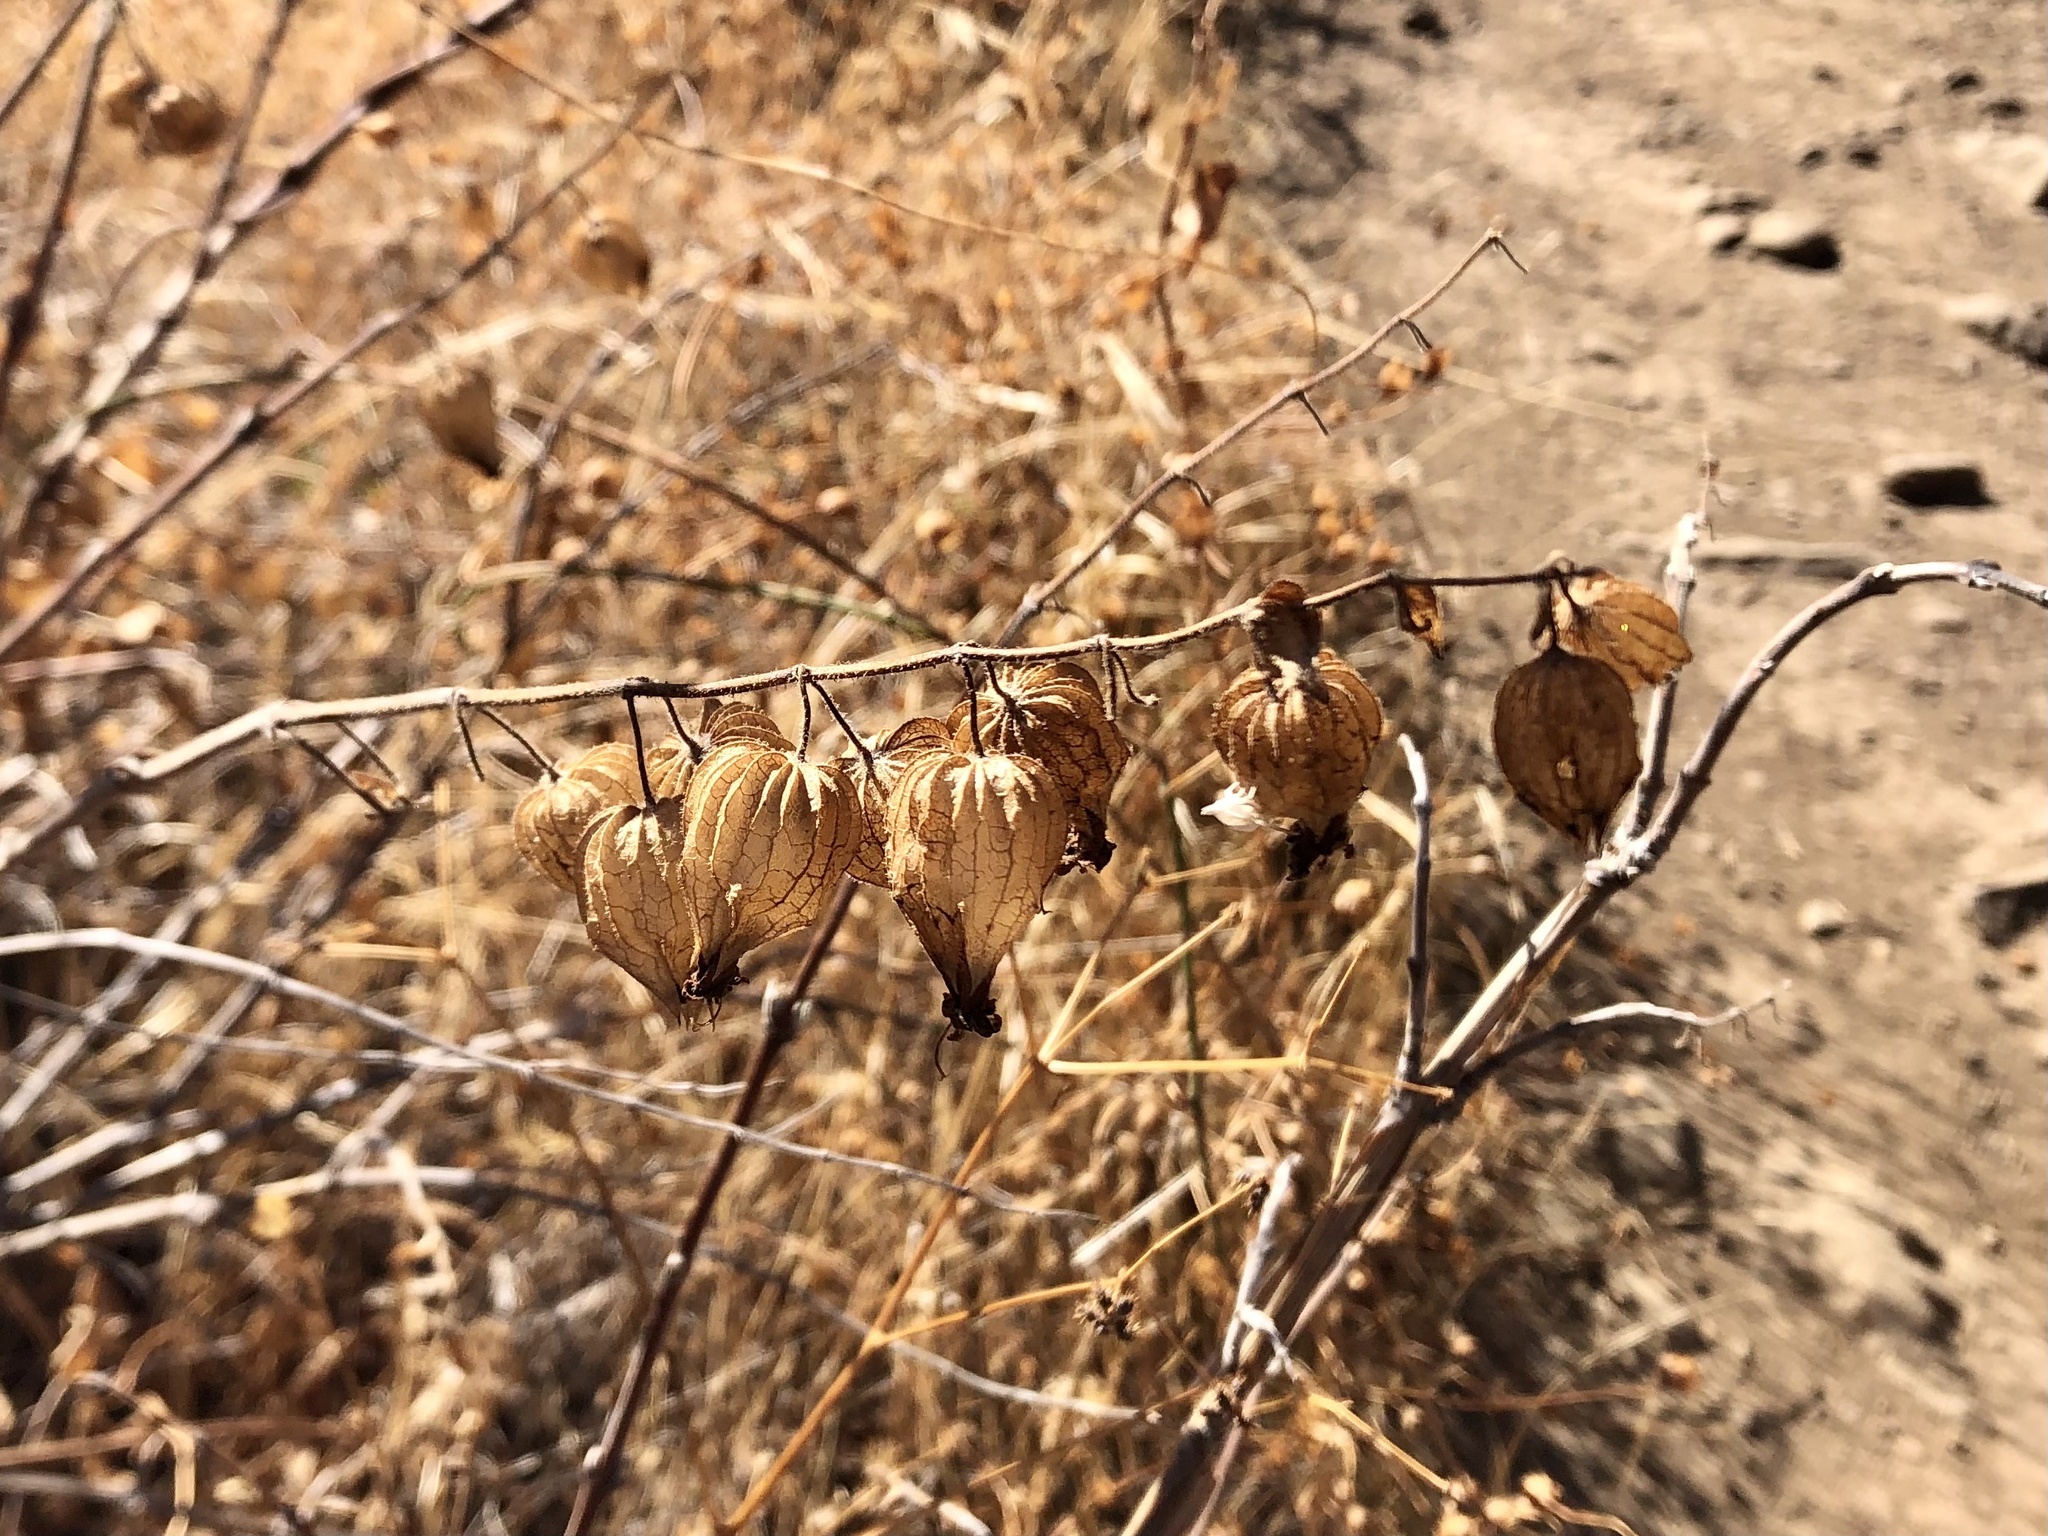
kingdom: Plantae
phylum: Tracheophyta
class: Magnoliopsida
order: Lamiales
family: Lamiaceae
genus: Lepechinia
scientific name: Lepechinia calycina
